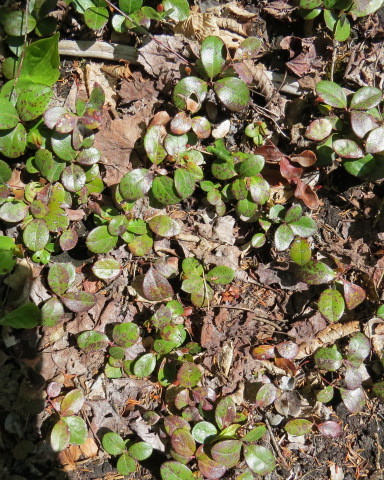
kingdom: Plantae
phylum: Tracheophyta
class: Magnoliopsida
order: Ericales
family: Ericaceae
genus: Gaultheria
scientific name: Gaultheria procumbens
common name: Checkerberry
